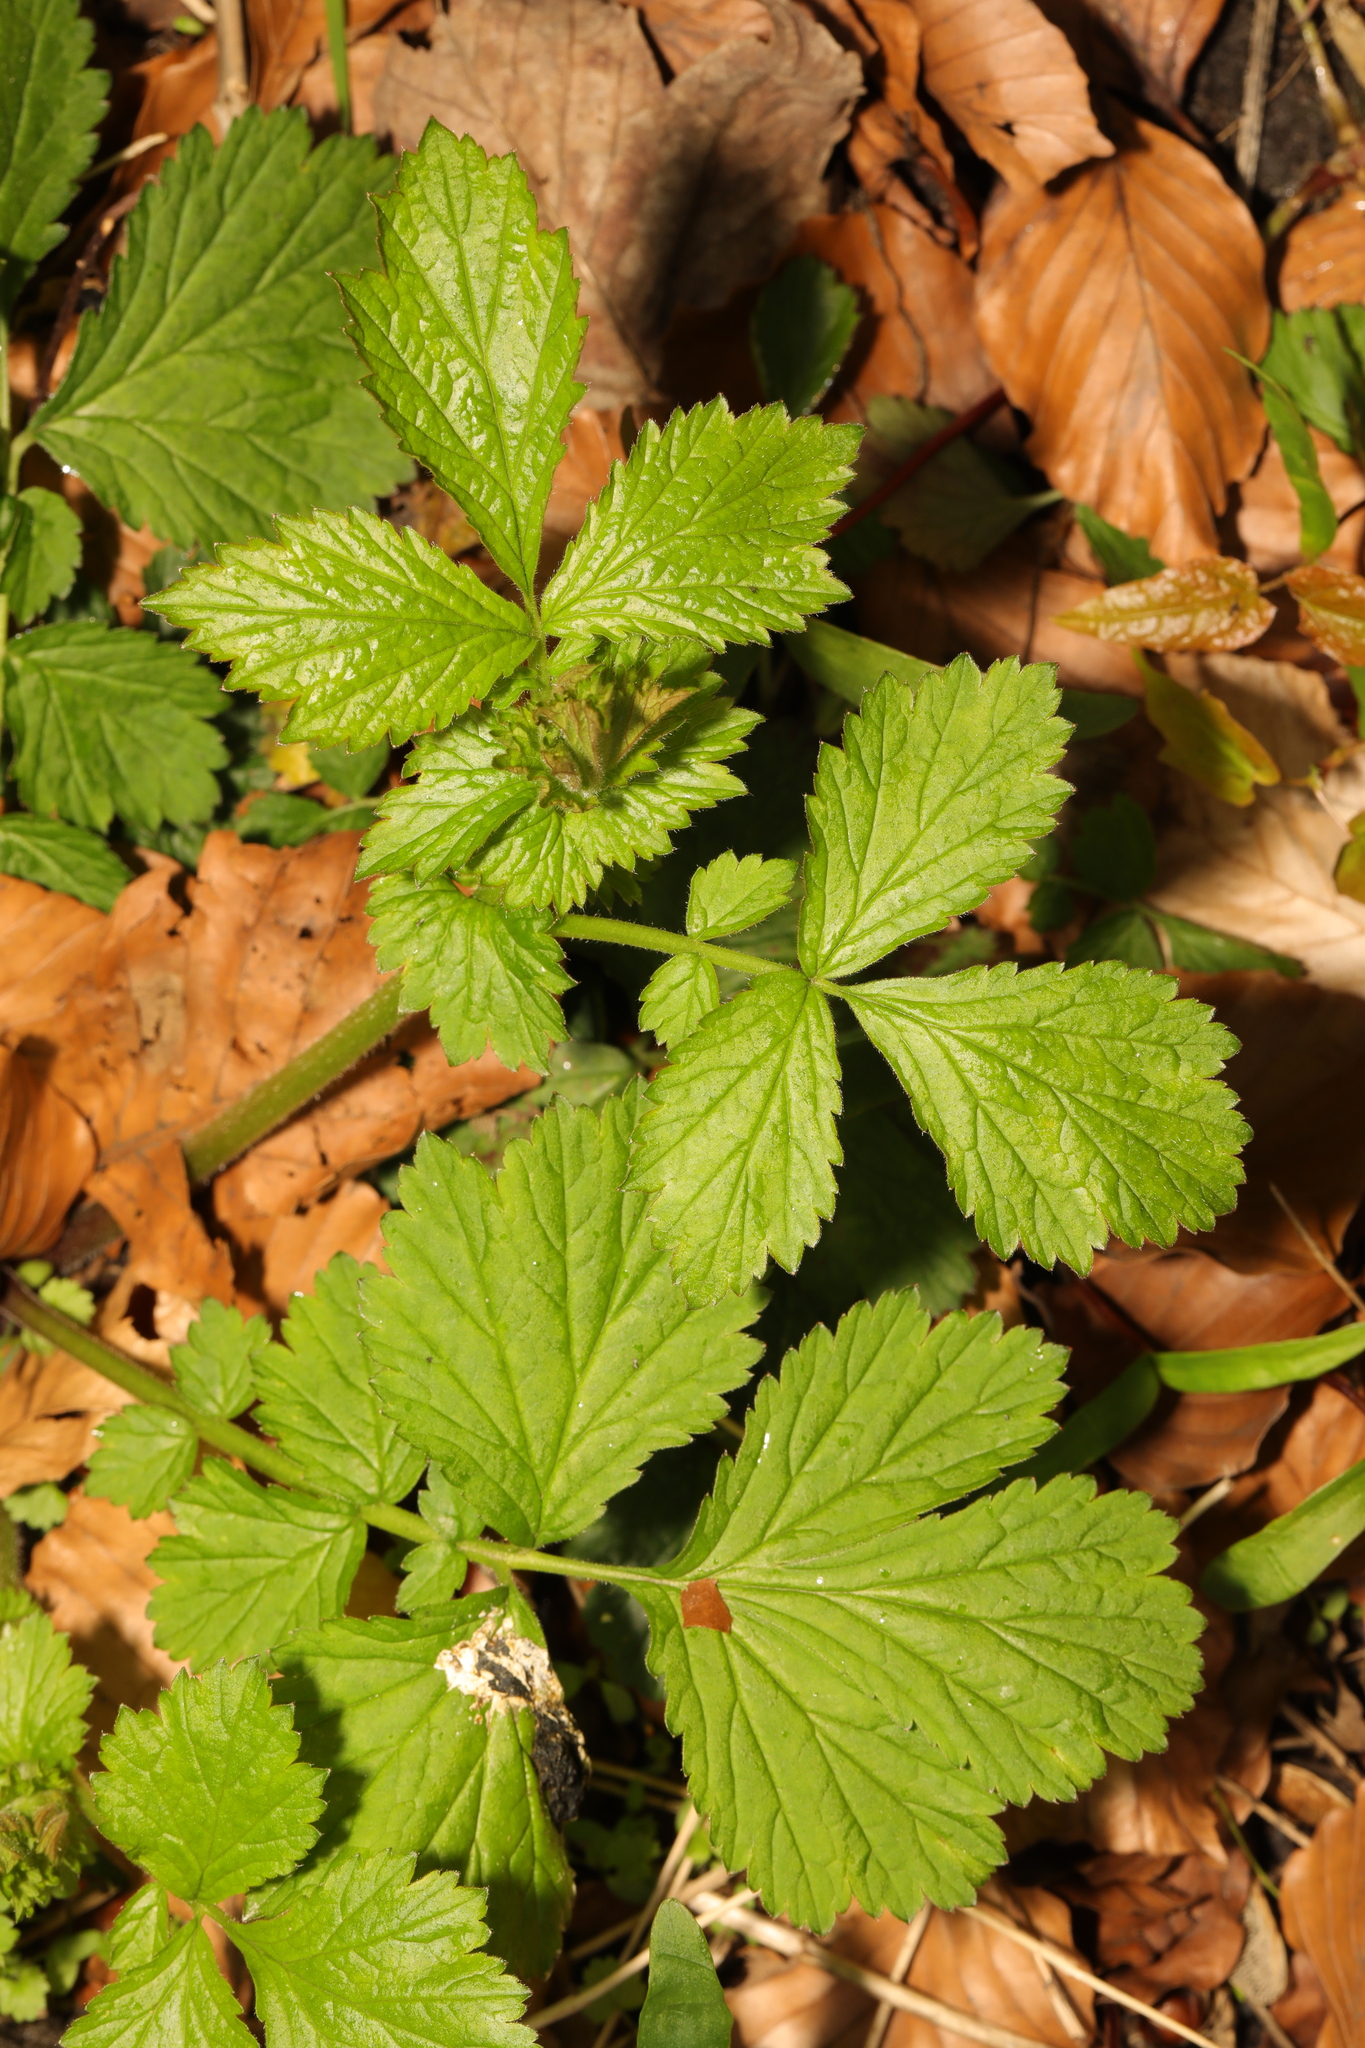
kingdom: Plantae
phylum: Tracheophyta
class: Magnoliopsida
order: Rosales
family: Rosaceae
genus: Geum
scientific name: Geum urbanum
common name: Wood avens
